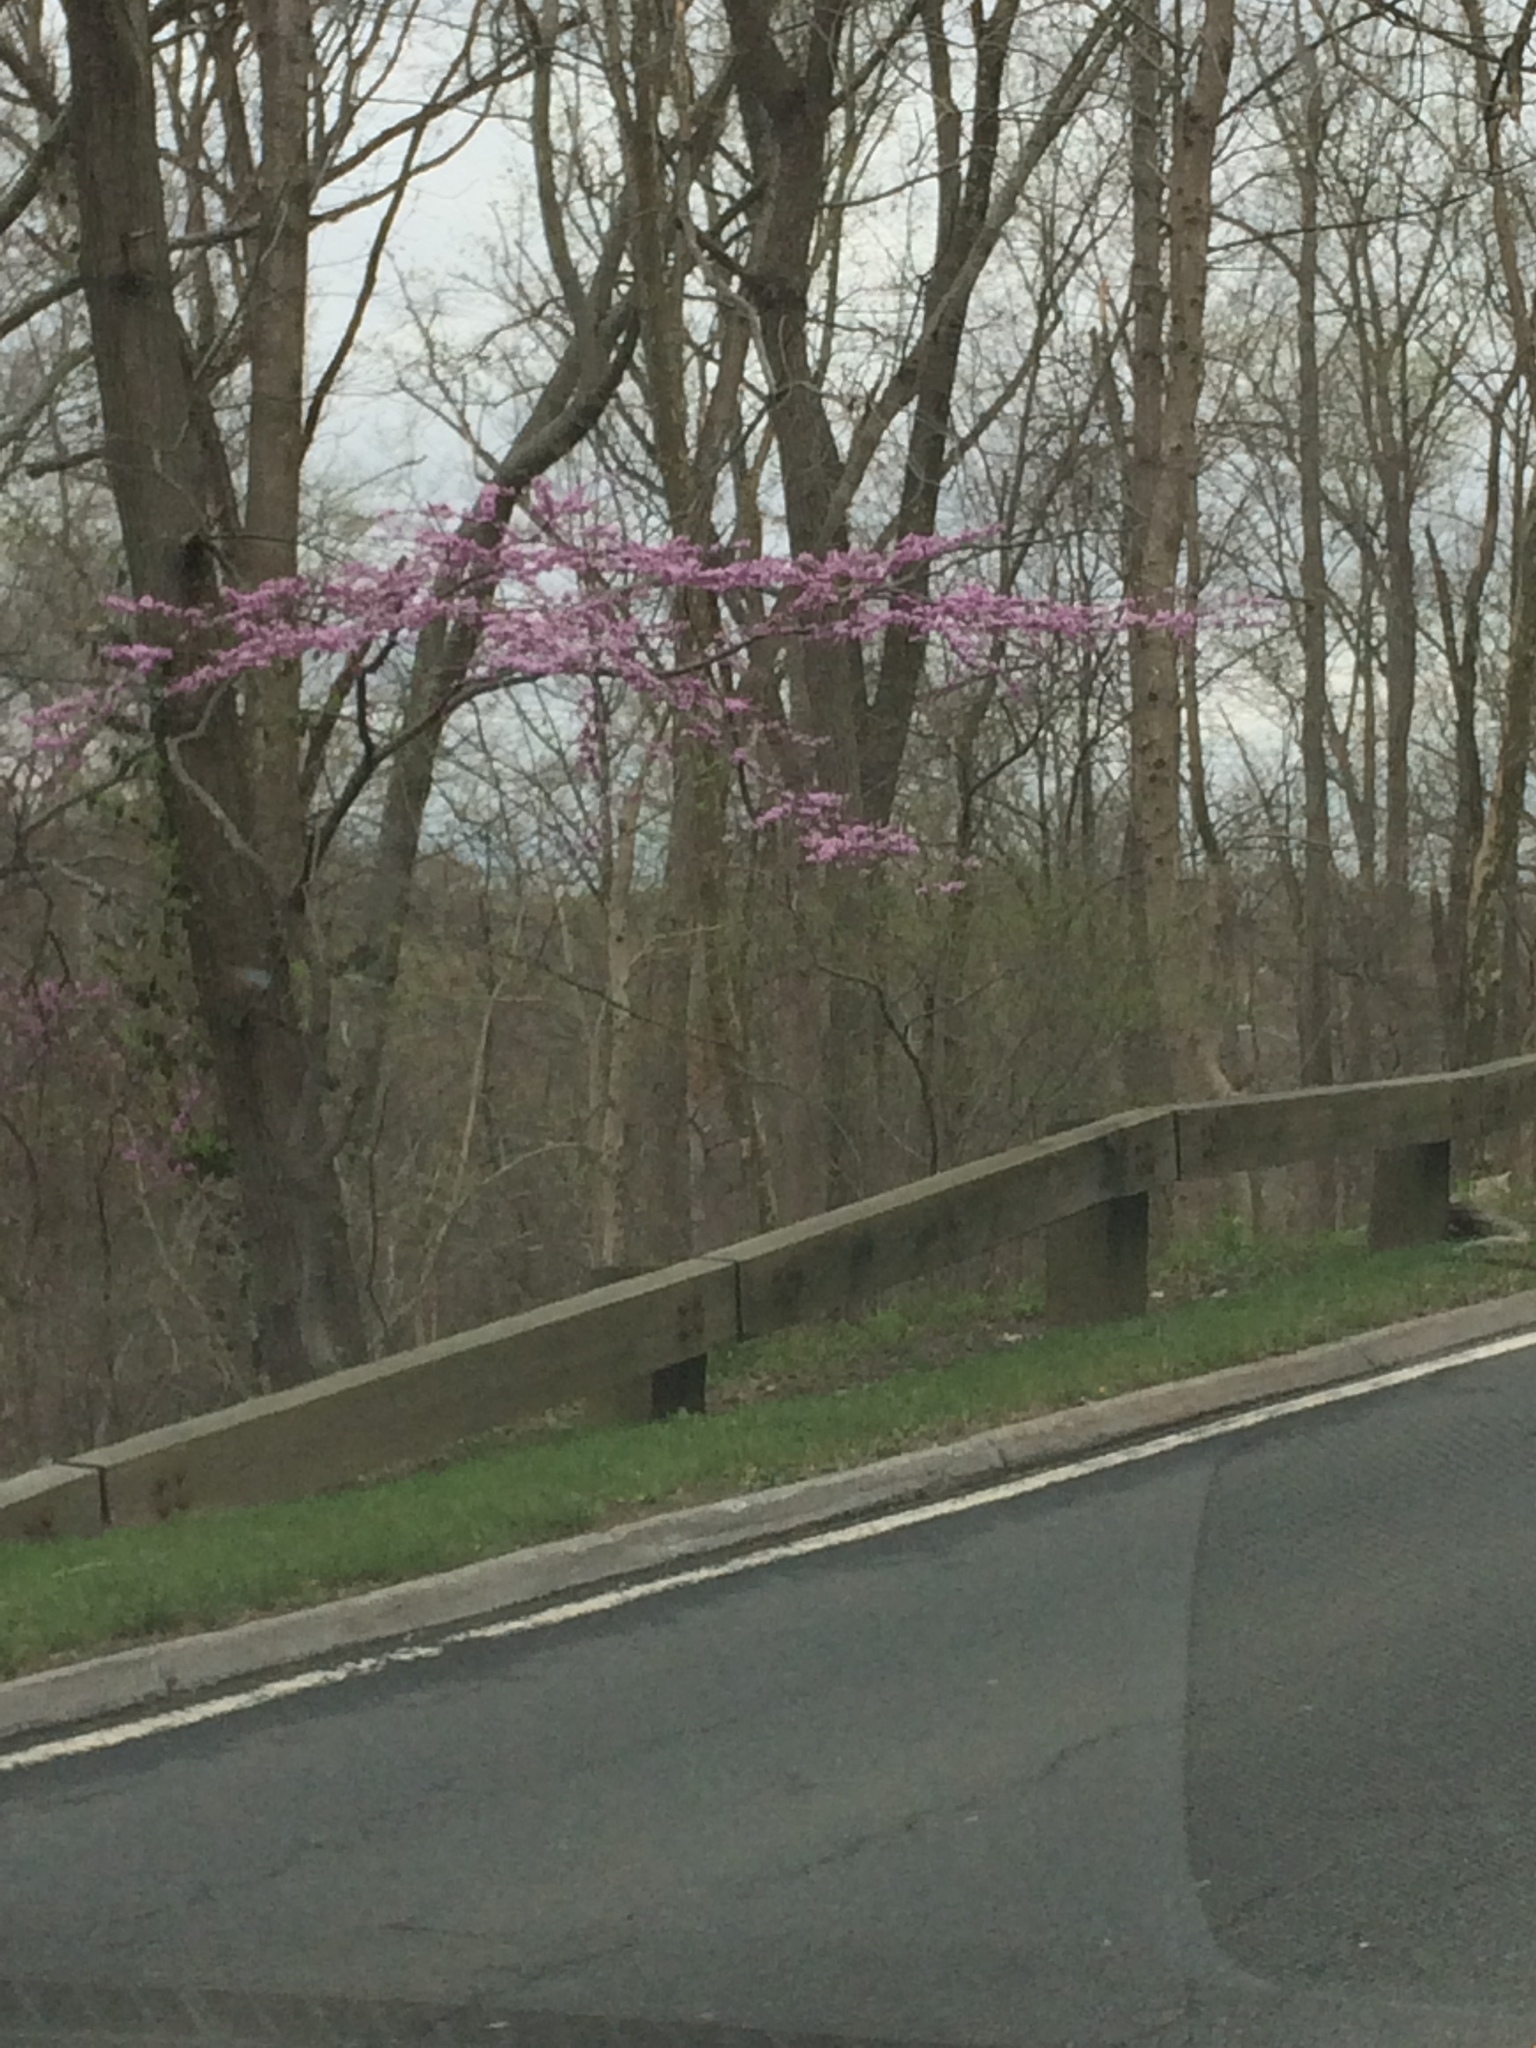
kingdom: Plantae
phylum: Tracheophyta
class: Magnoliopsida
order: Fabales
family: Fabaceae
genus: Cercis
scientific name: Cercis canadensis
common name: Eastern redbud
